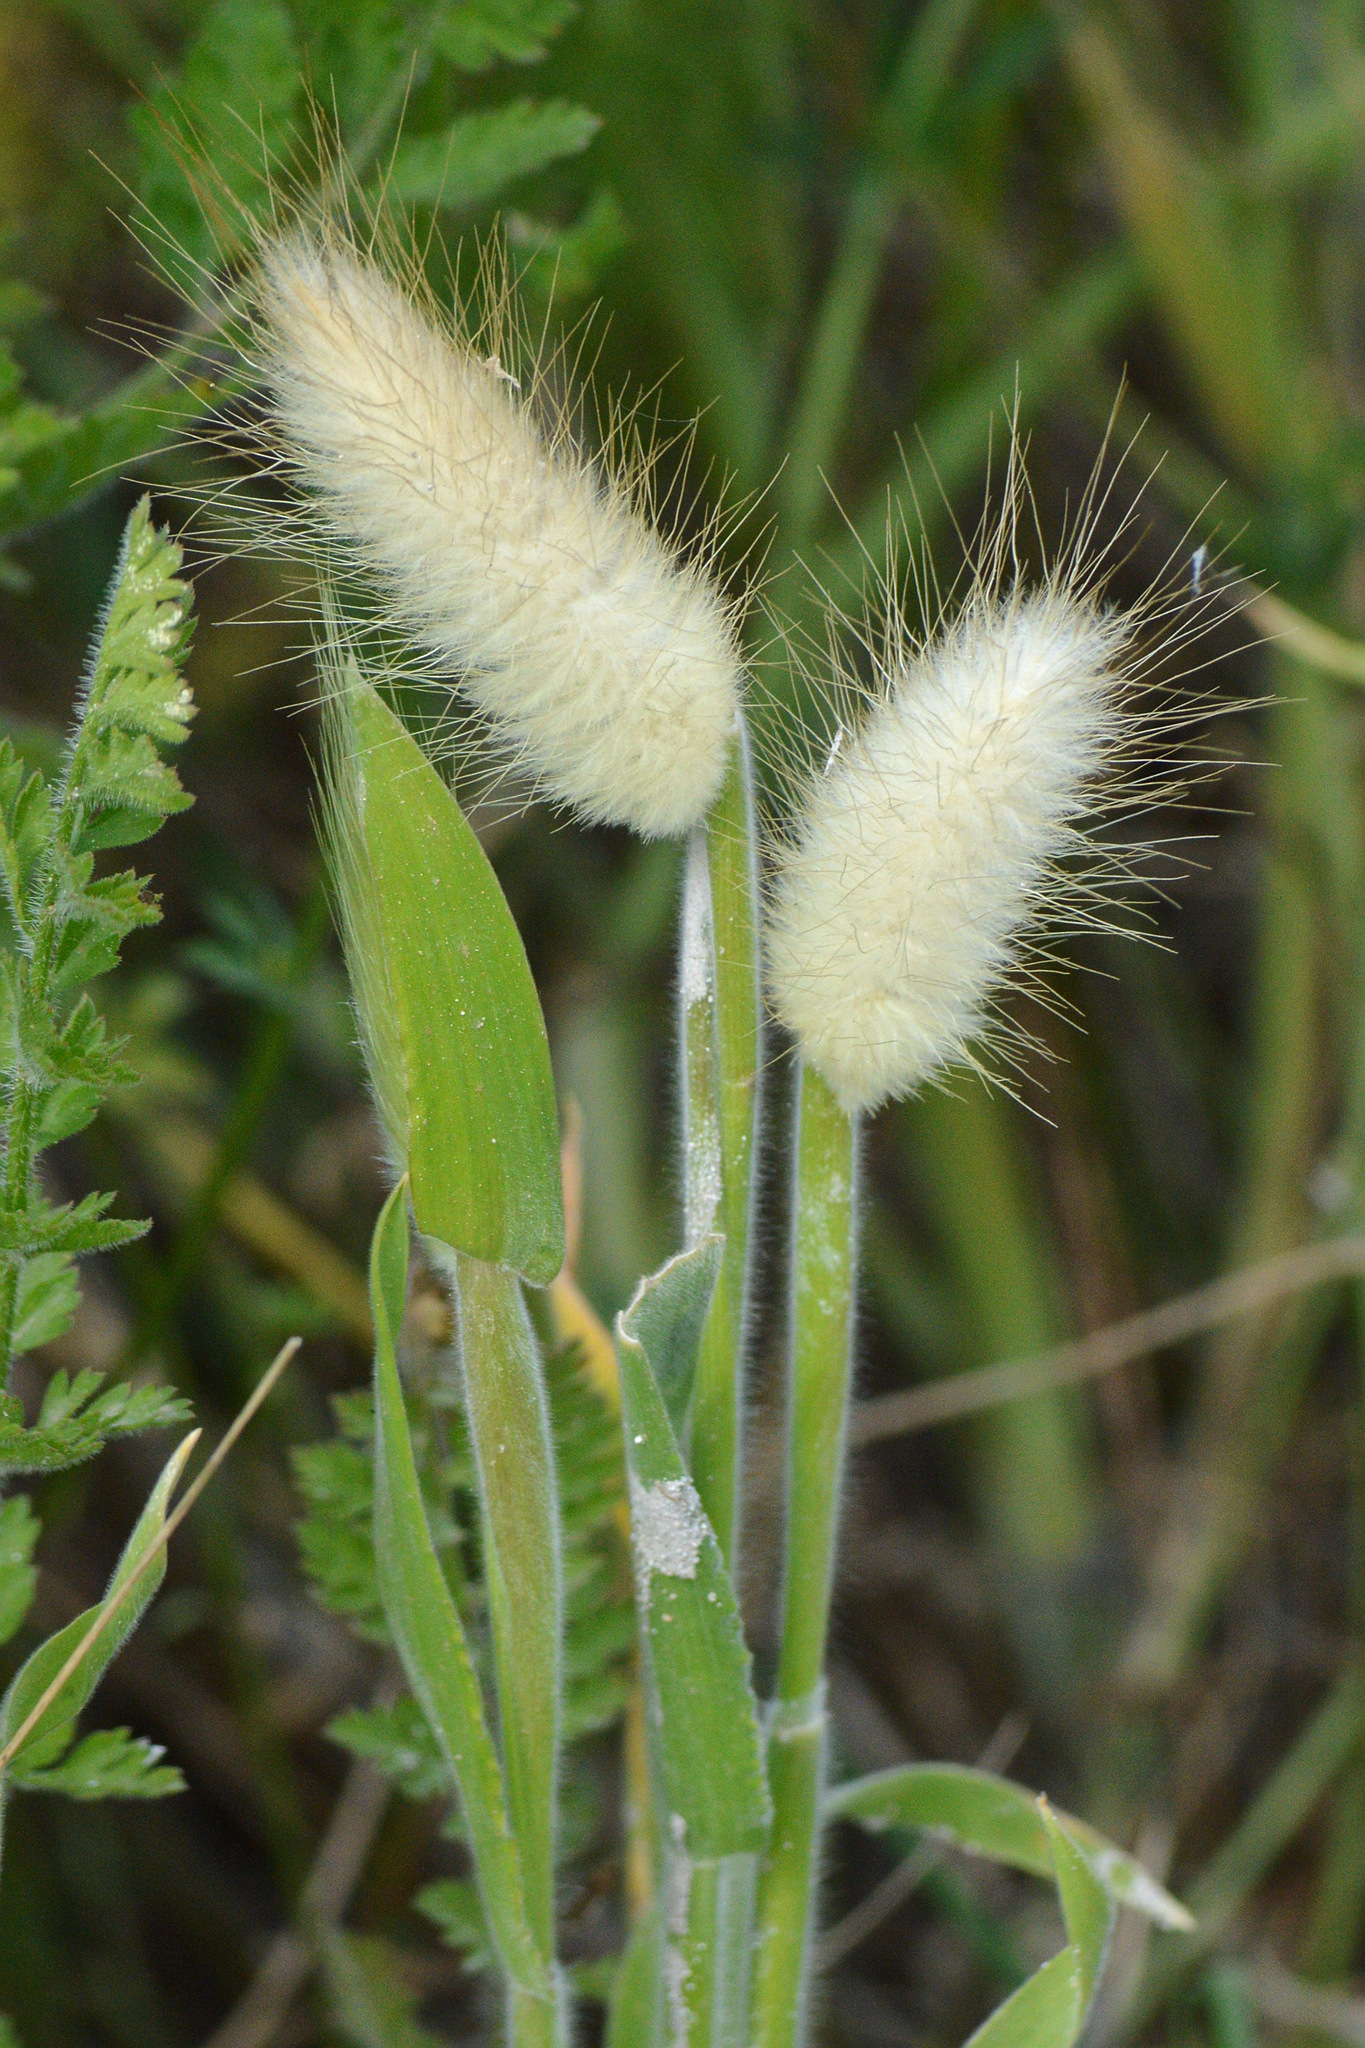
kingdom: Plantae
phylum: Tracheophyta
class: Liliopsida
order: Poales
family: Poaceae
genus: Lagurus
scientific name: Lagurus ovatus
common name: Hare's-tail
